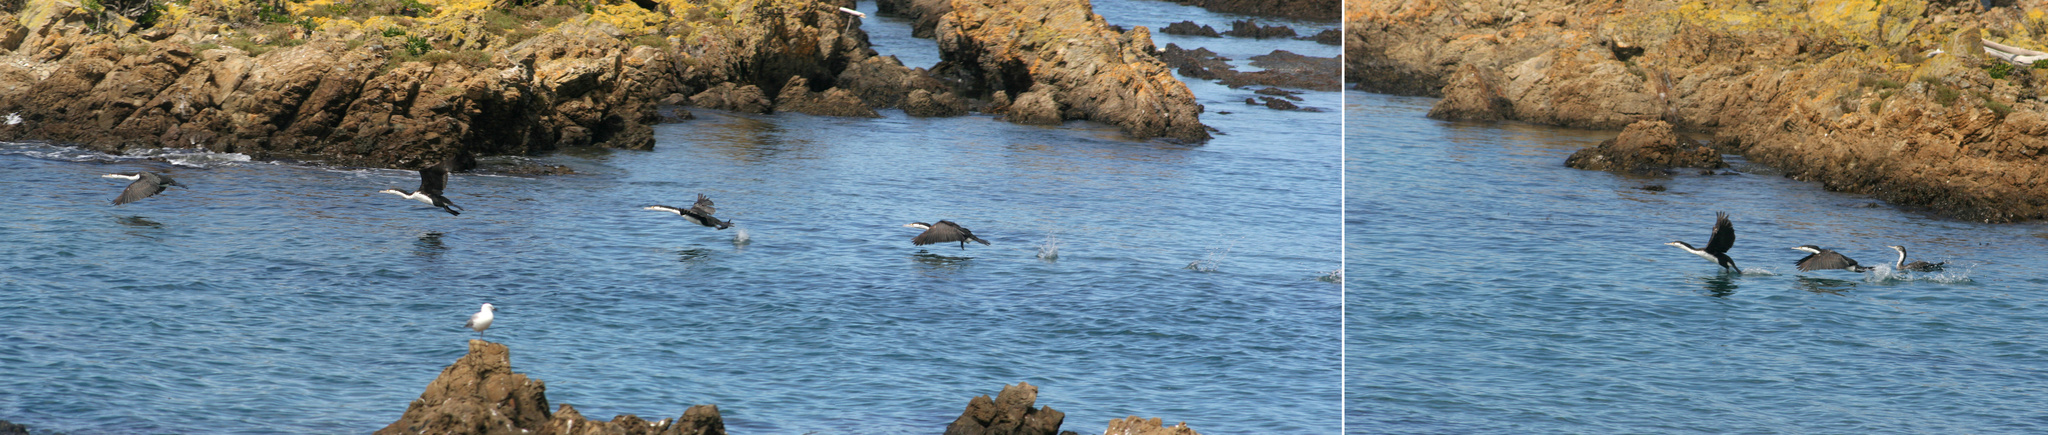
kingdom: Animalia
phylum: Chordata
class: Aves
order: Suliformes
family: Phalacrocoracidae
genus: Phalacrocorax
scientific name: Phalacrocorax varius
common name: Pied cormorant
